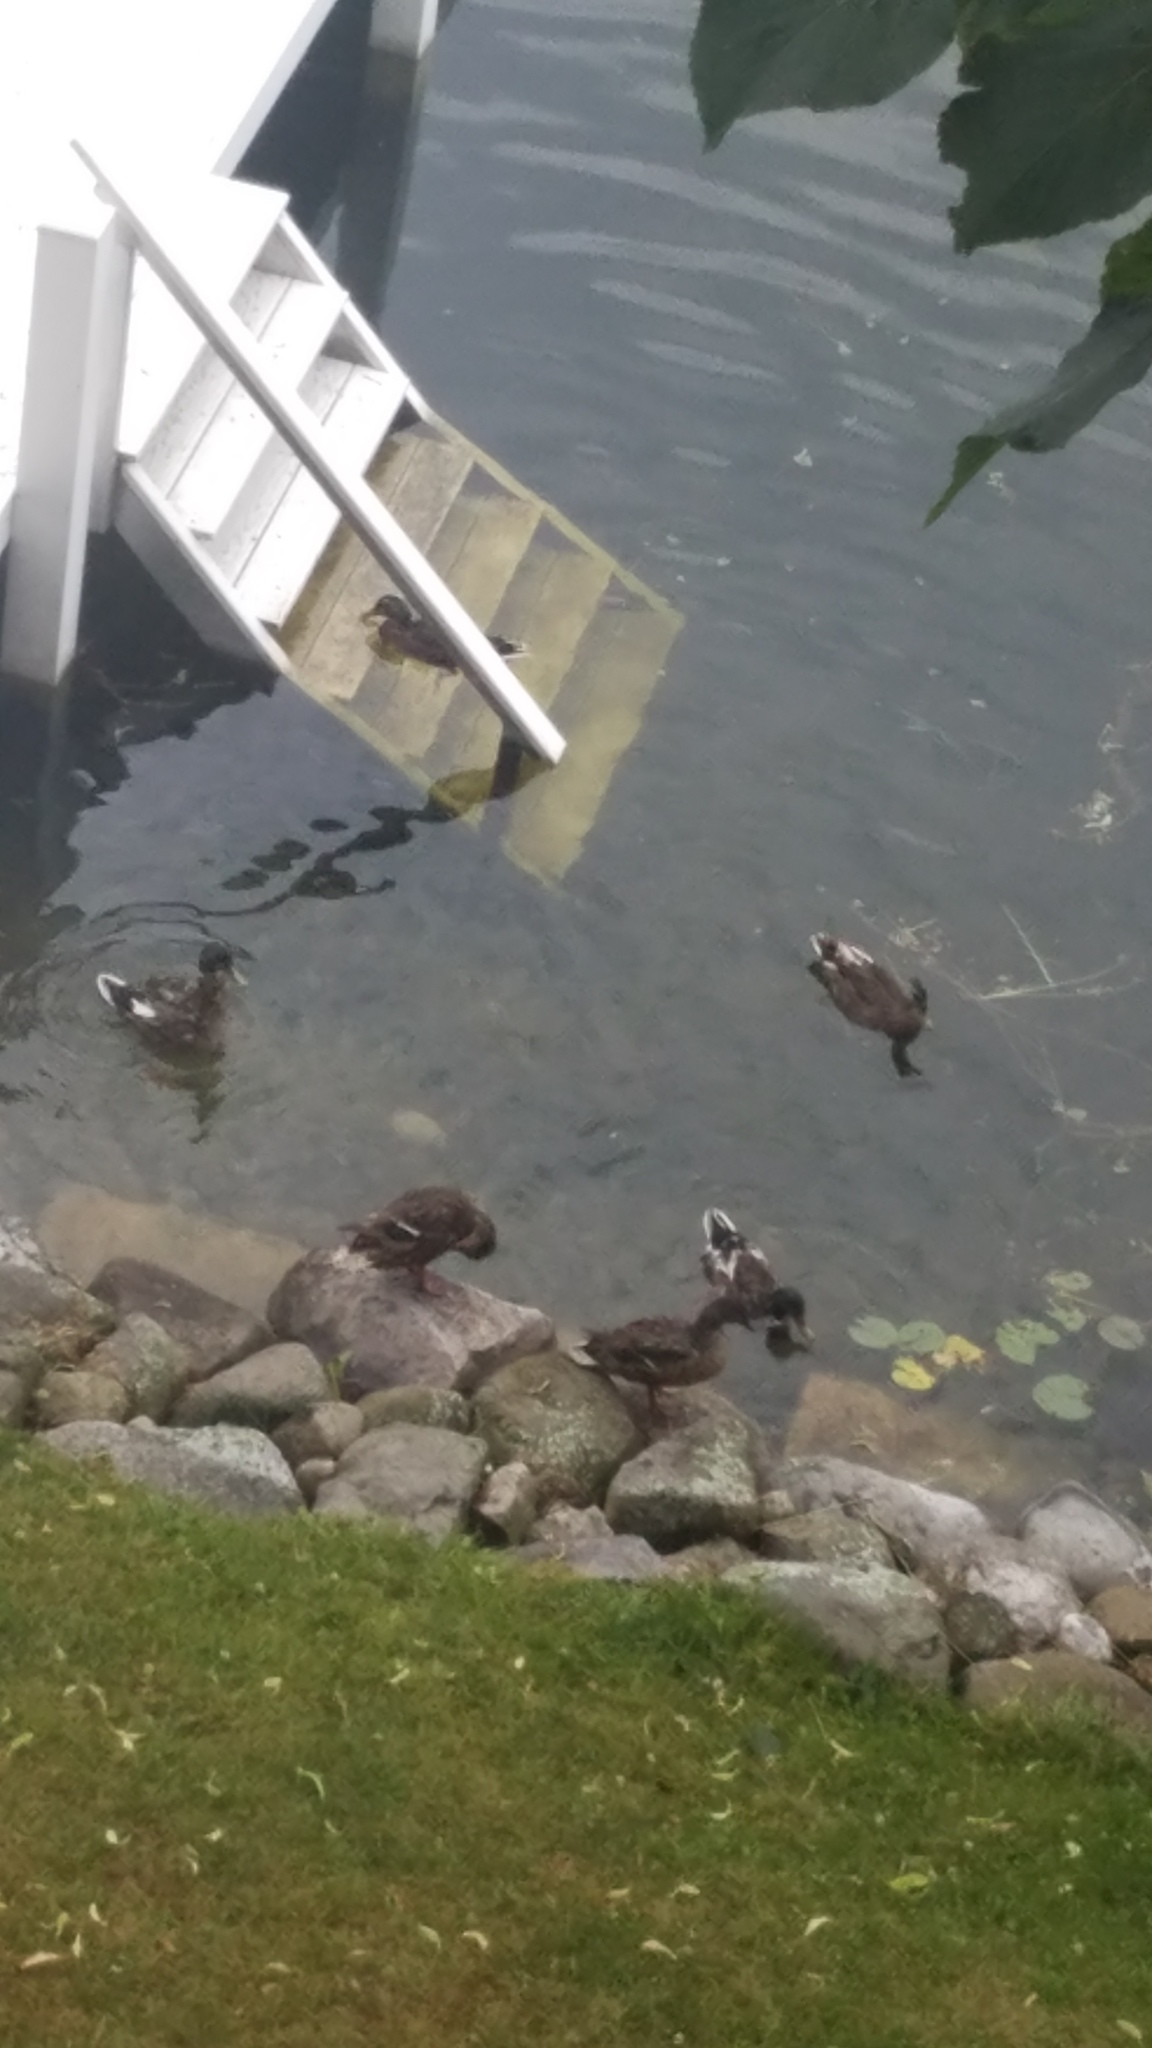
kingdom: Animalia
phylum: Chordata
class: Aves
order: Anseriformes
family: Anatidae
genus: Anas
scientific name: Anas platyrhynchos
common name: Mallard
